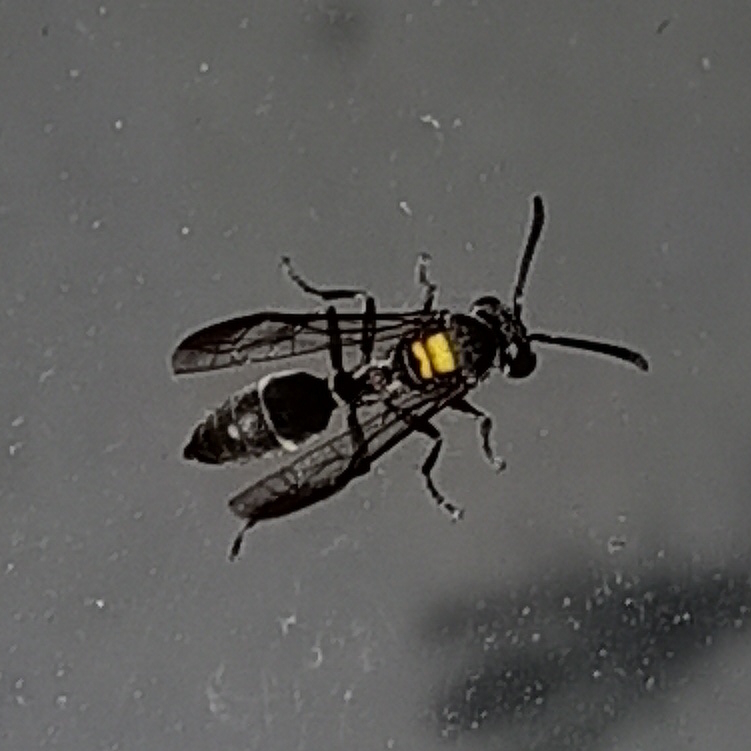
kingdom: Animalia
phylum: Arthropoda
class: Insecta
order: Hymenoptera
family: Eumenidae
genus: Polybia
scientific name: Polybia paulista
